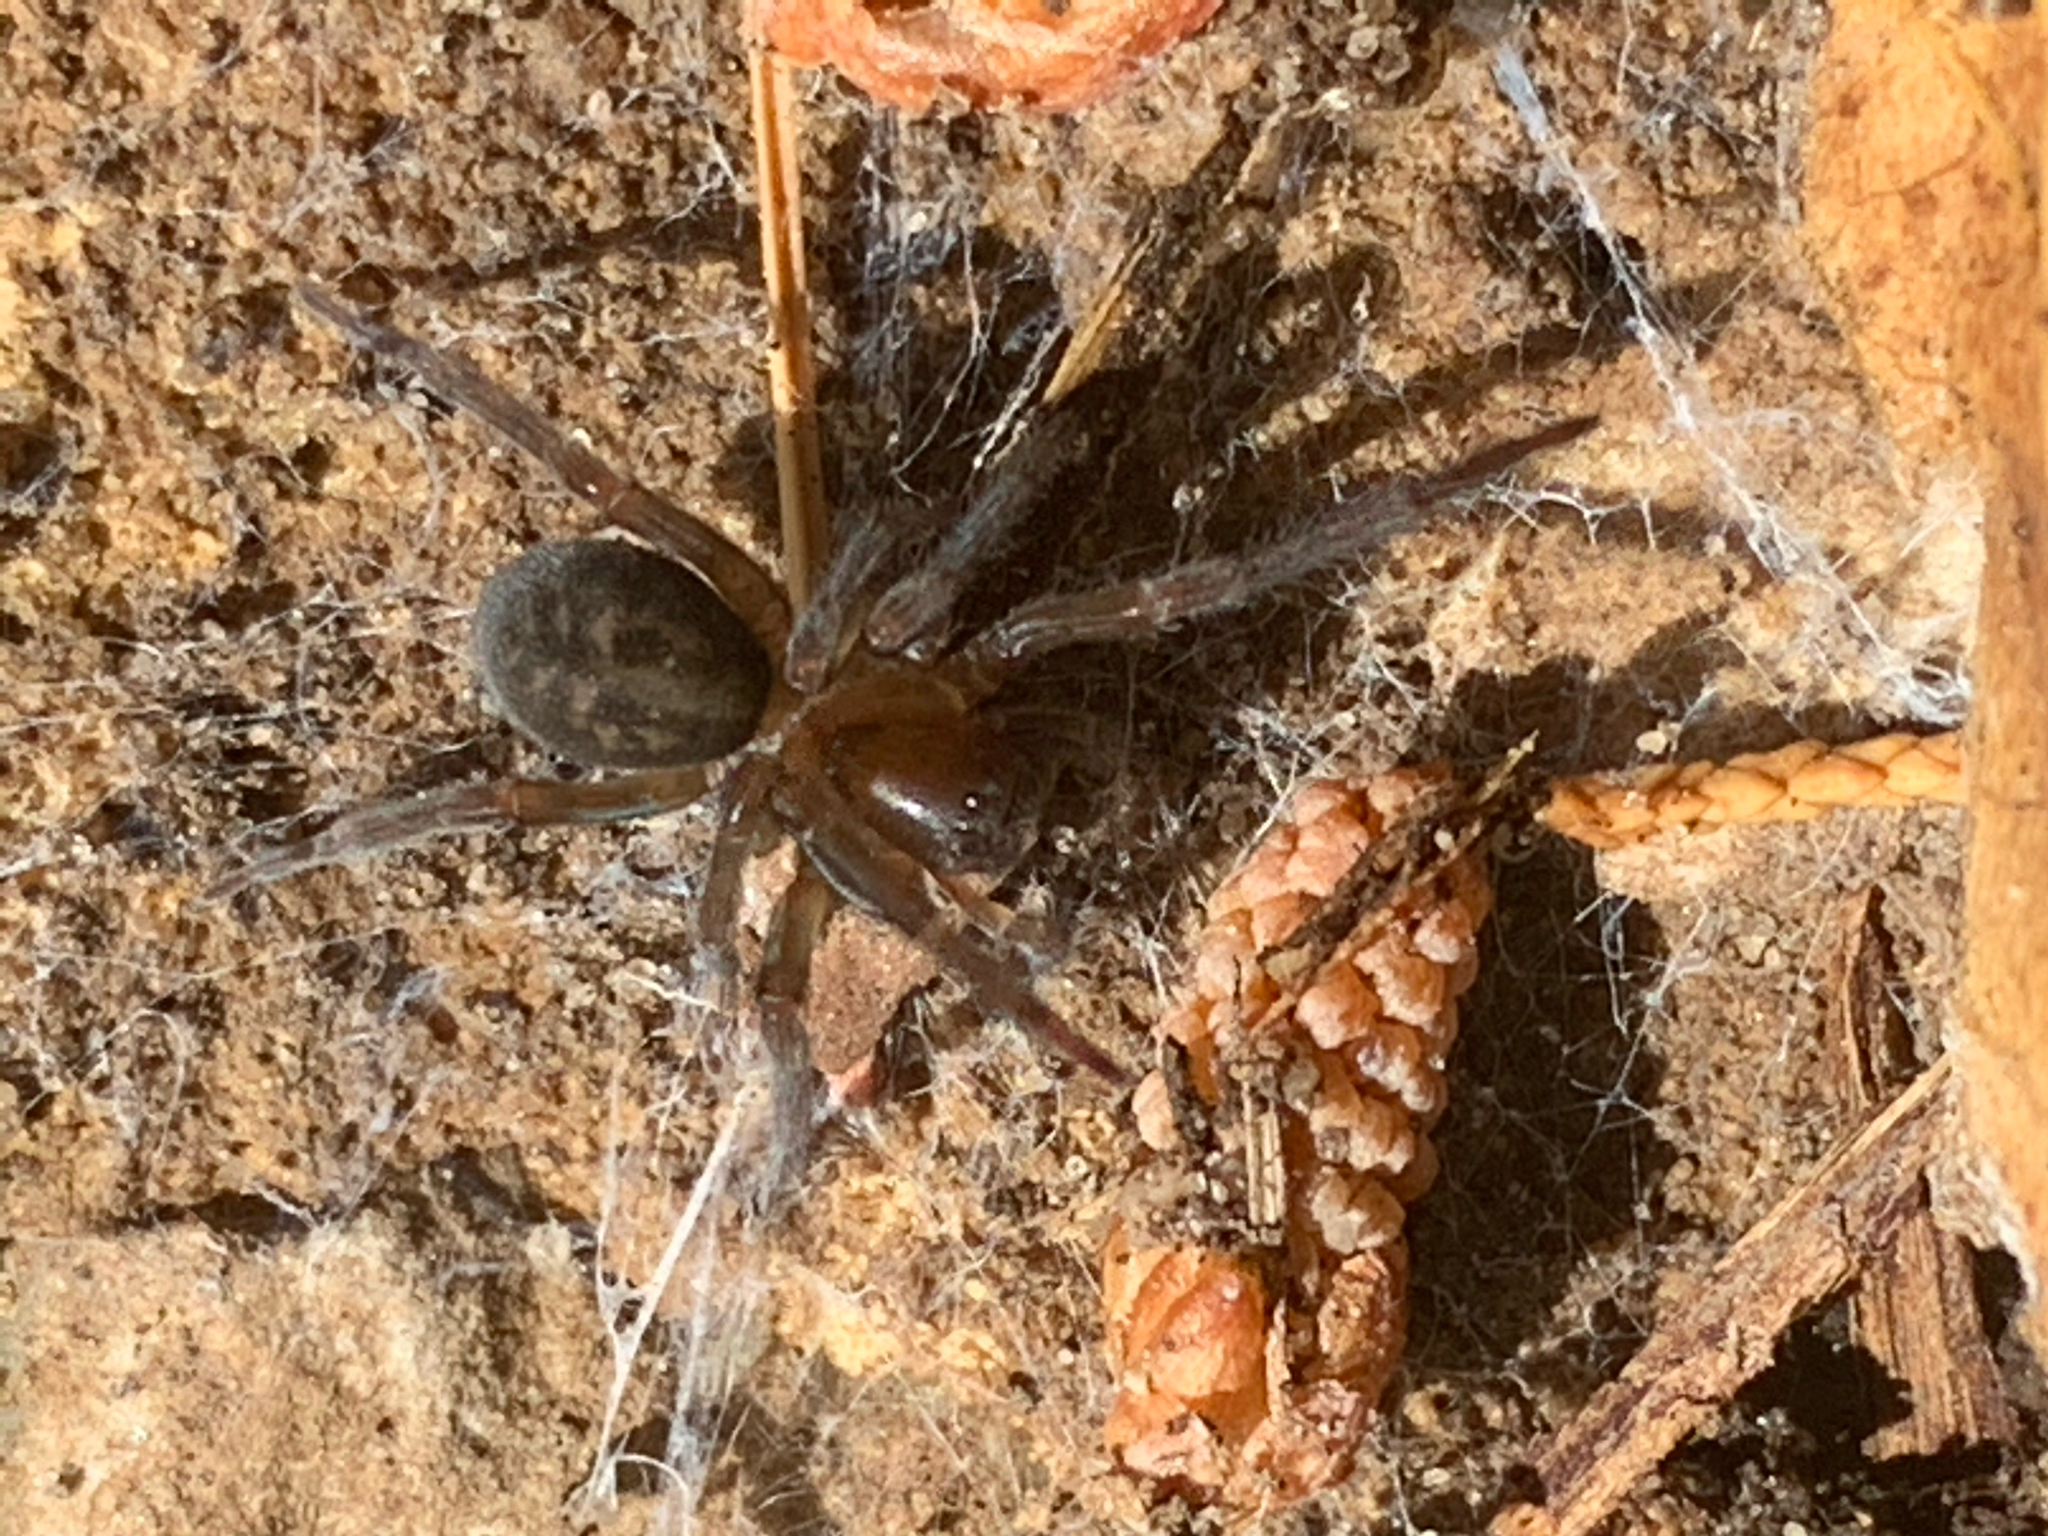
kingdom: Animalia
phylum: Arthropoda
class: Arachnida
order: Araneae
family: Amaurobiidae
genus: Amaurobius
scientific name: Amaurobius ferox
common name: Black laceweaver
